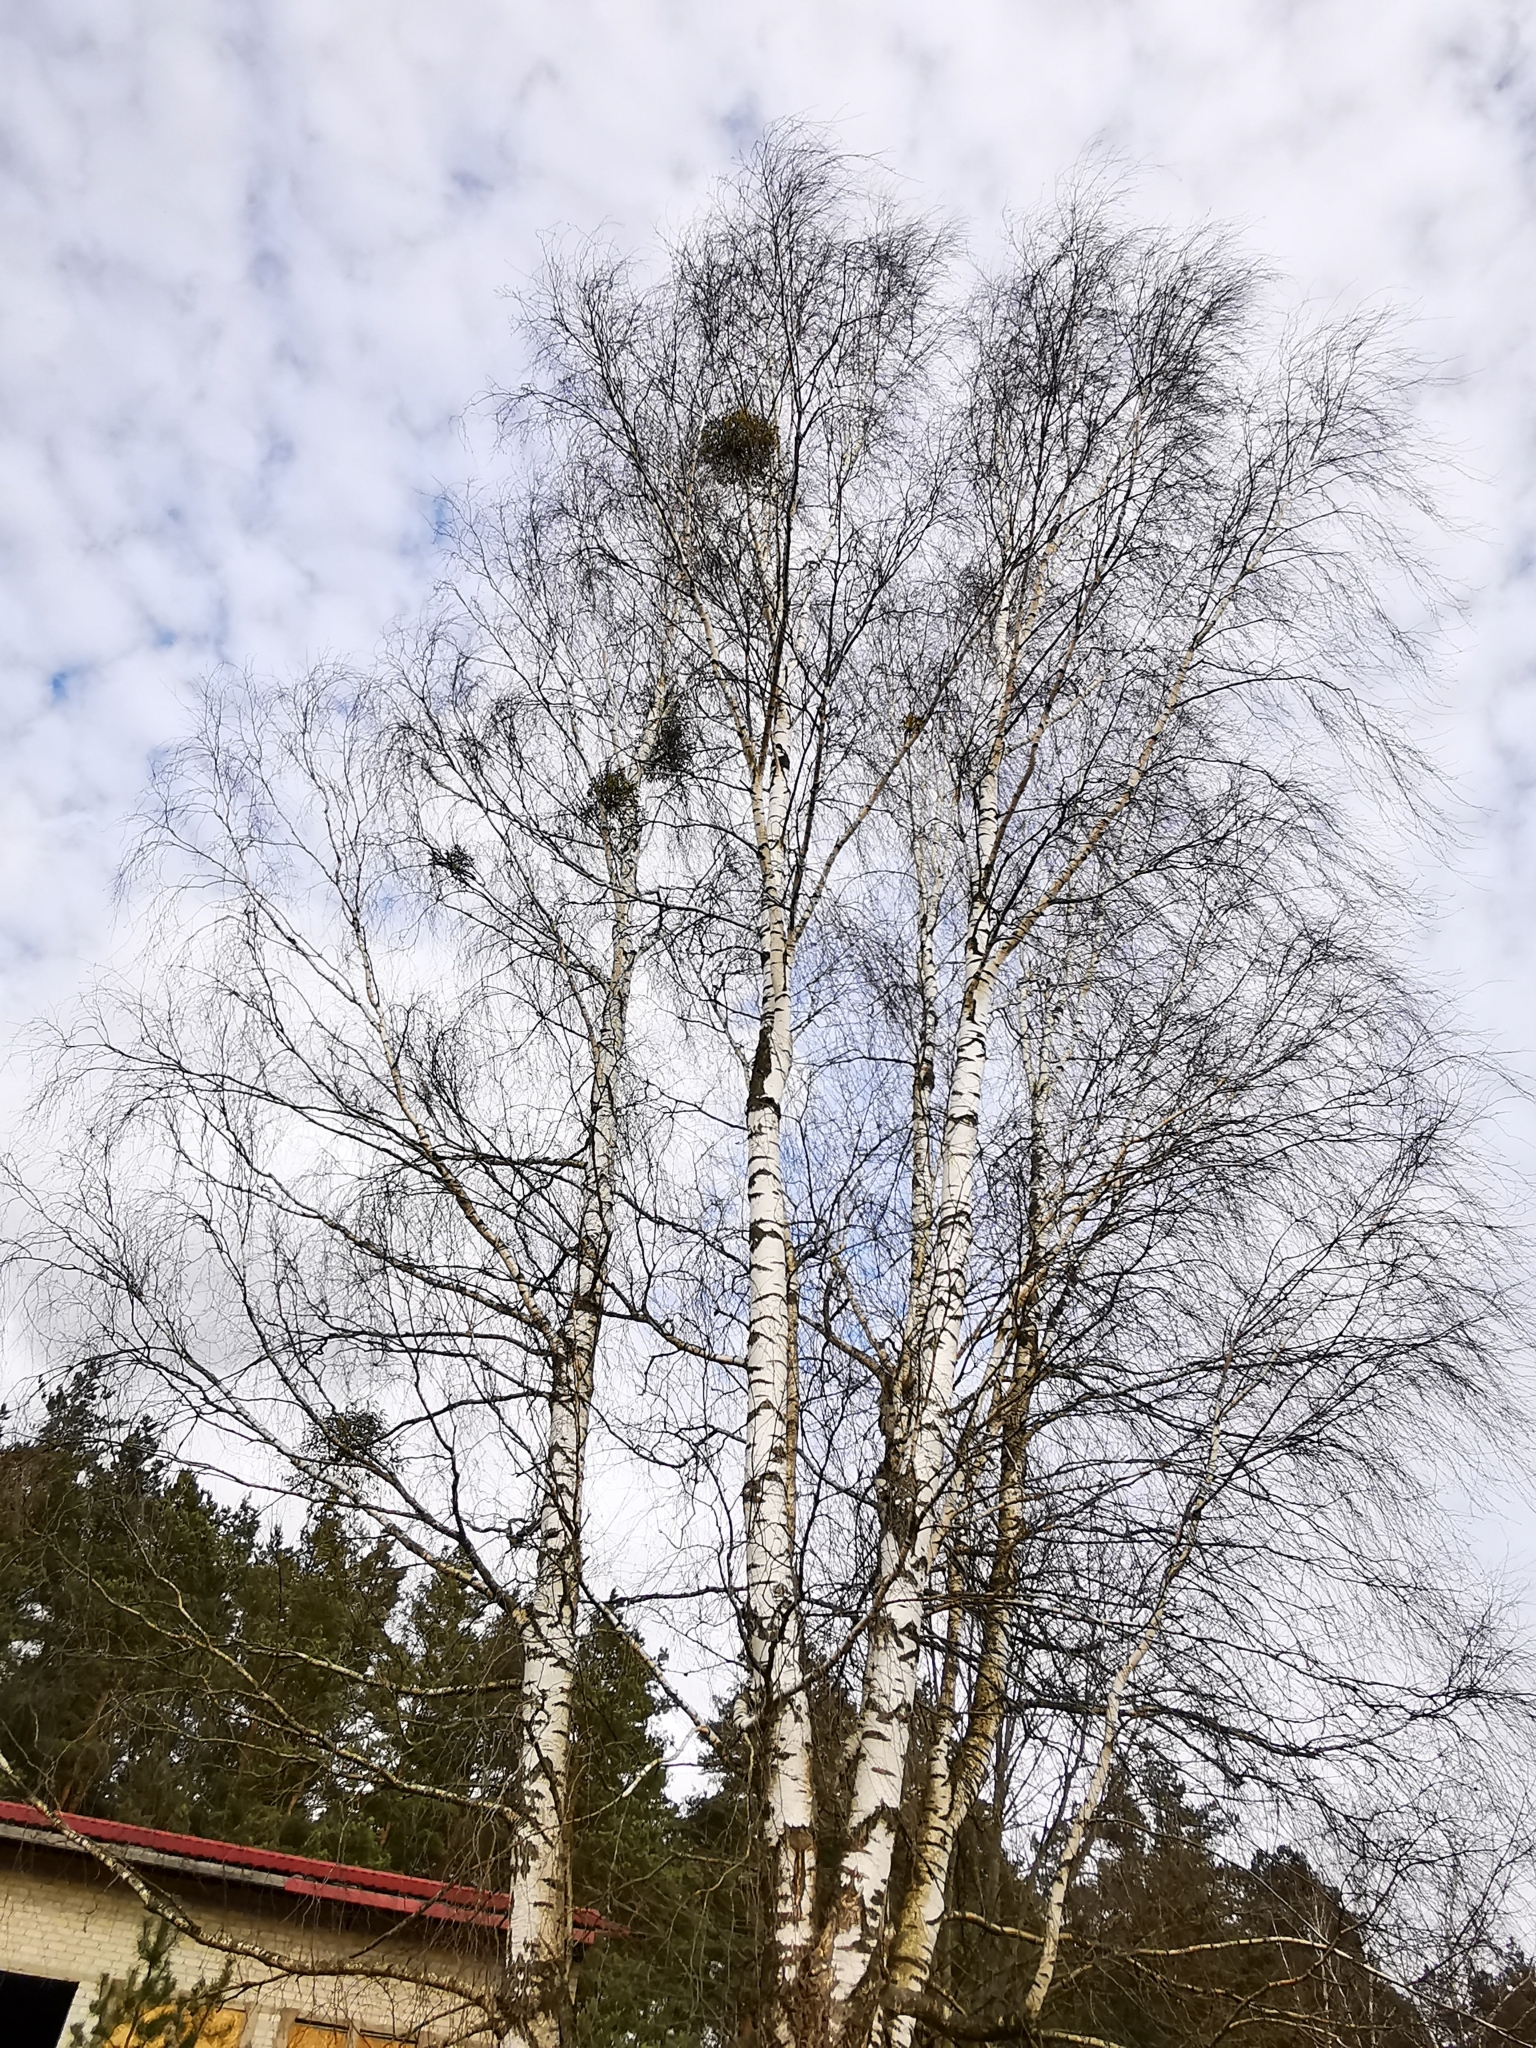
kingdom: Plantae
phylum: Tracheophyta
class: Magnoliopsida
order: Santalales
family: Viscaceae
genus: Viscum
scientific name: Viscum album
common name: Mistletoe
